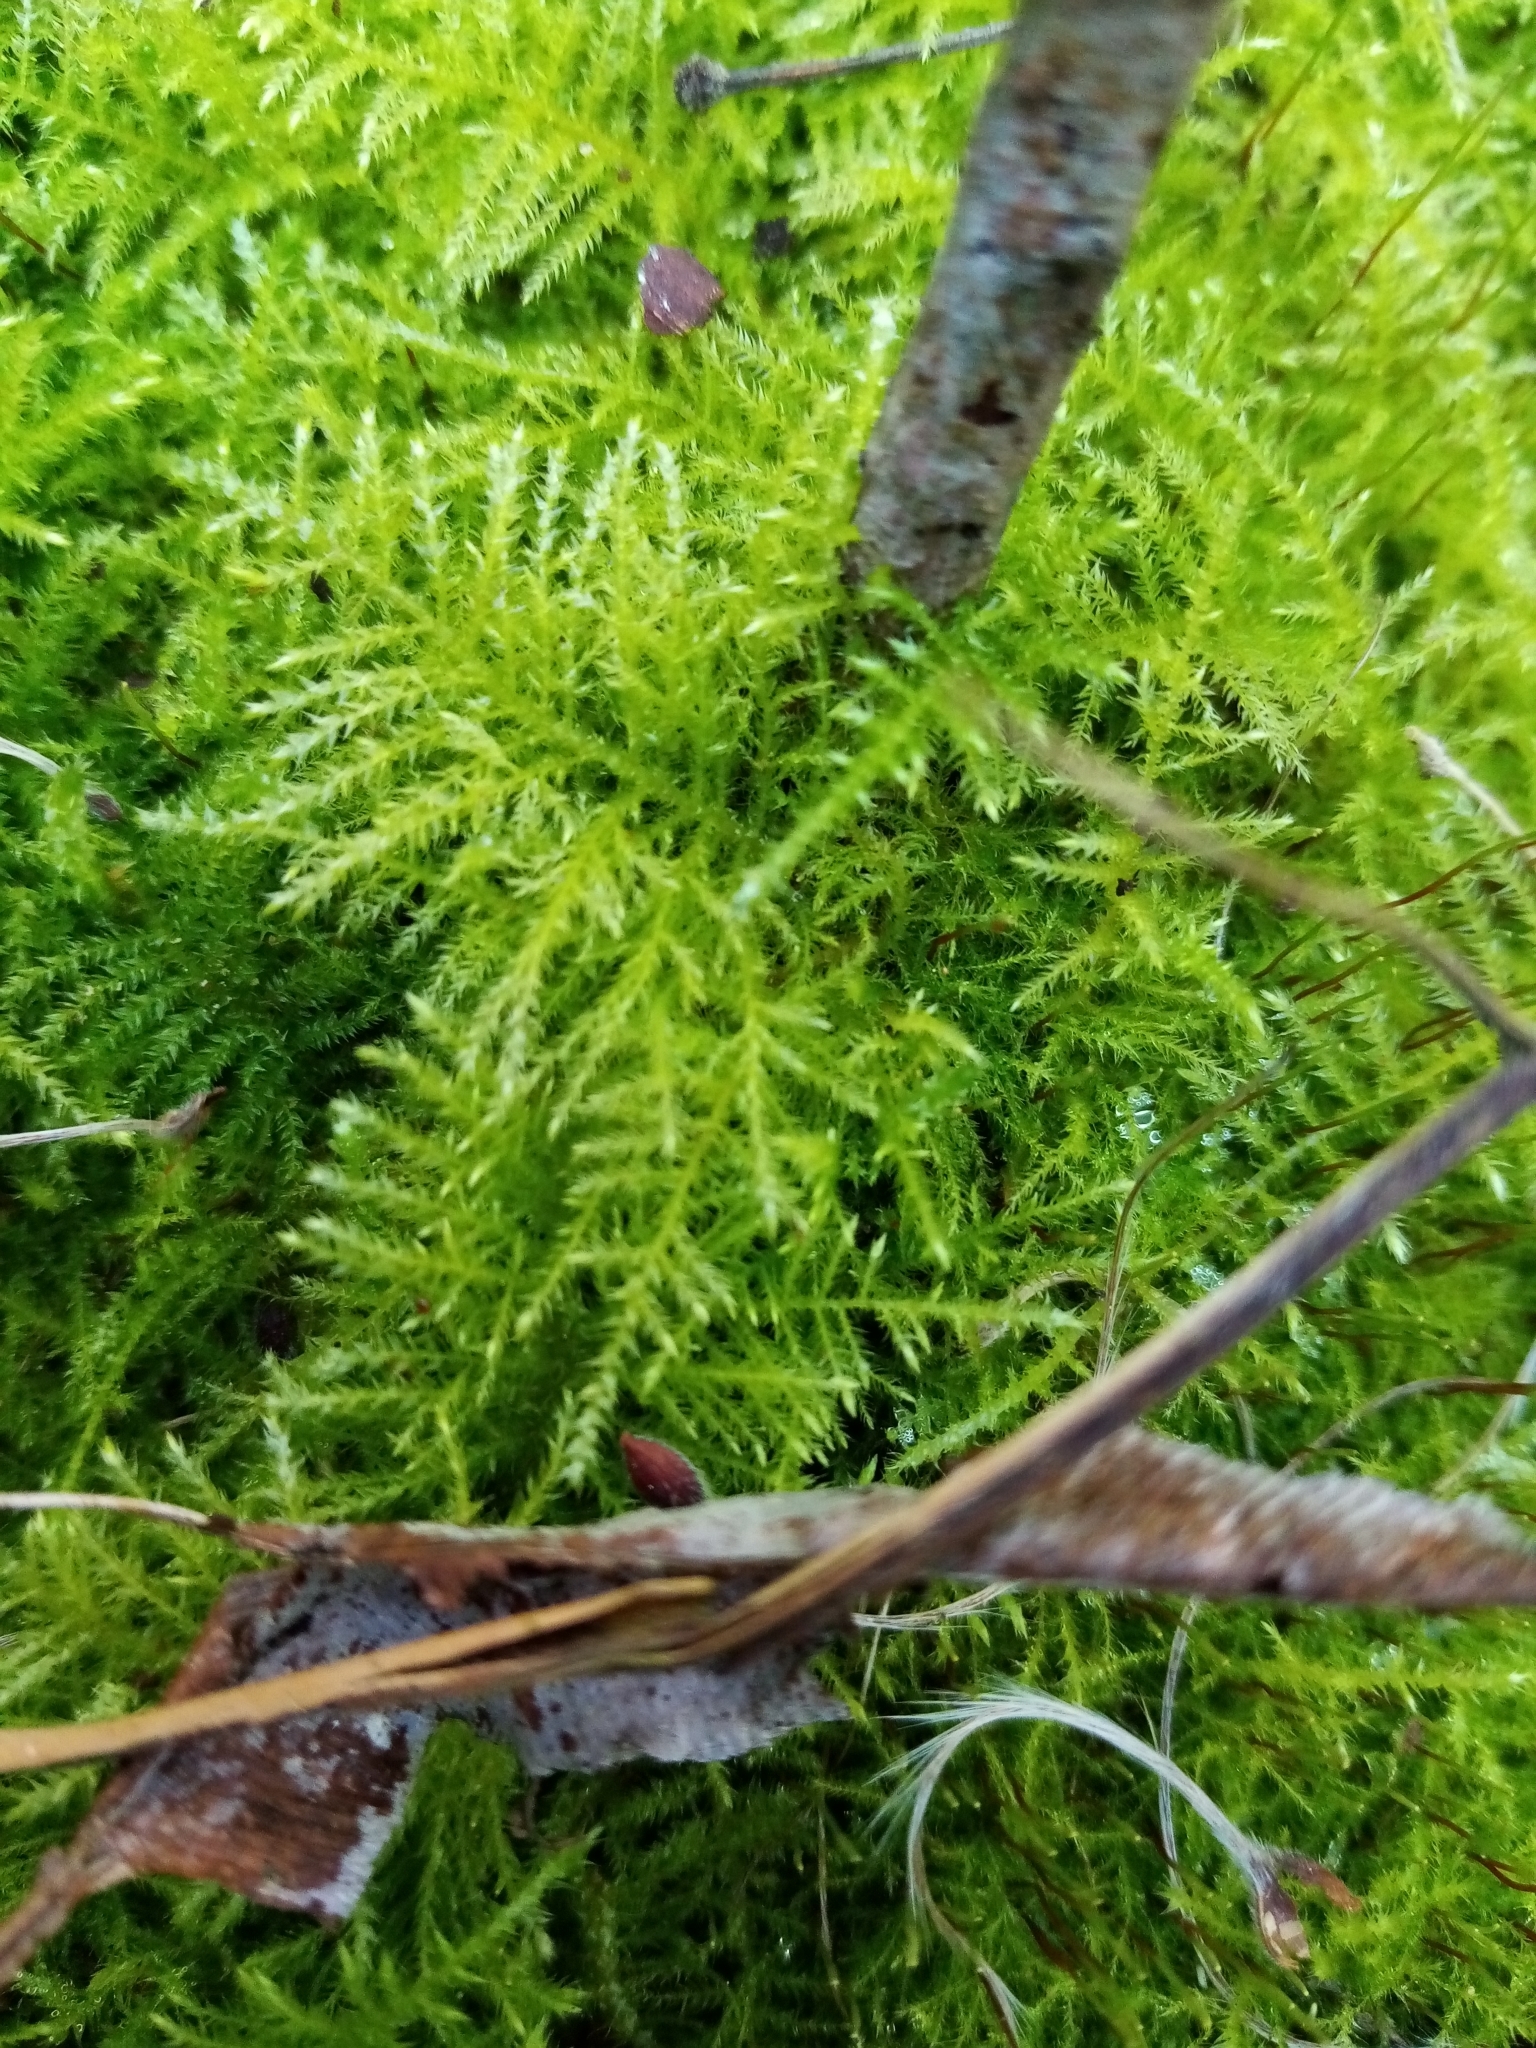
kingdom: Plantae
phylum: Bryophyta
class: Bryopsida
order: Hypnales
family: Brachytheciaceae
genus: Kindbergia
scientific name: Kindbergia praelonga
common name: Slender beaked moss
